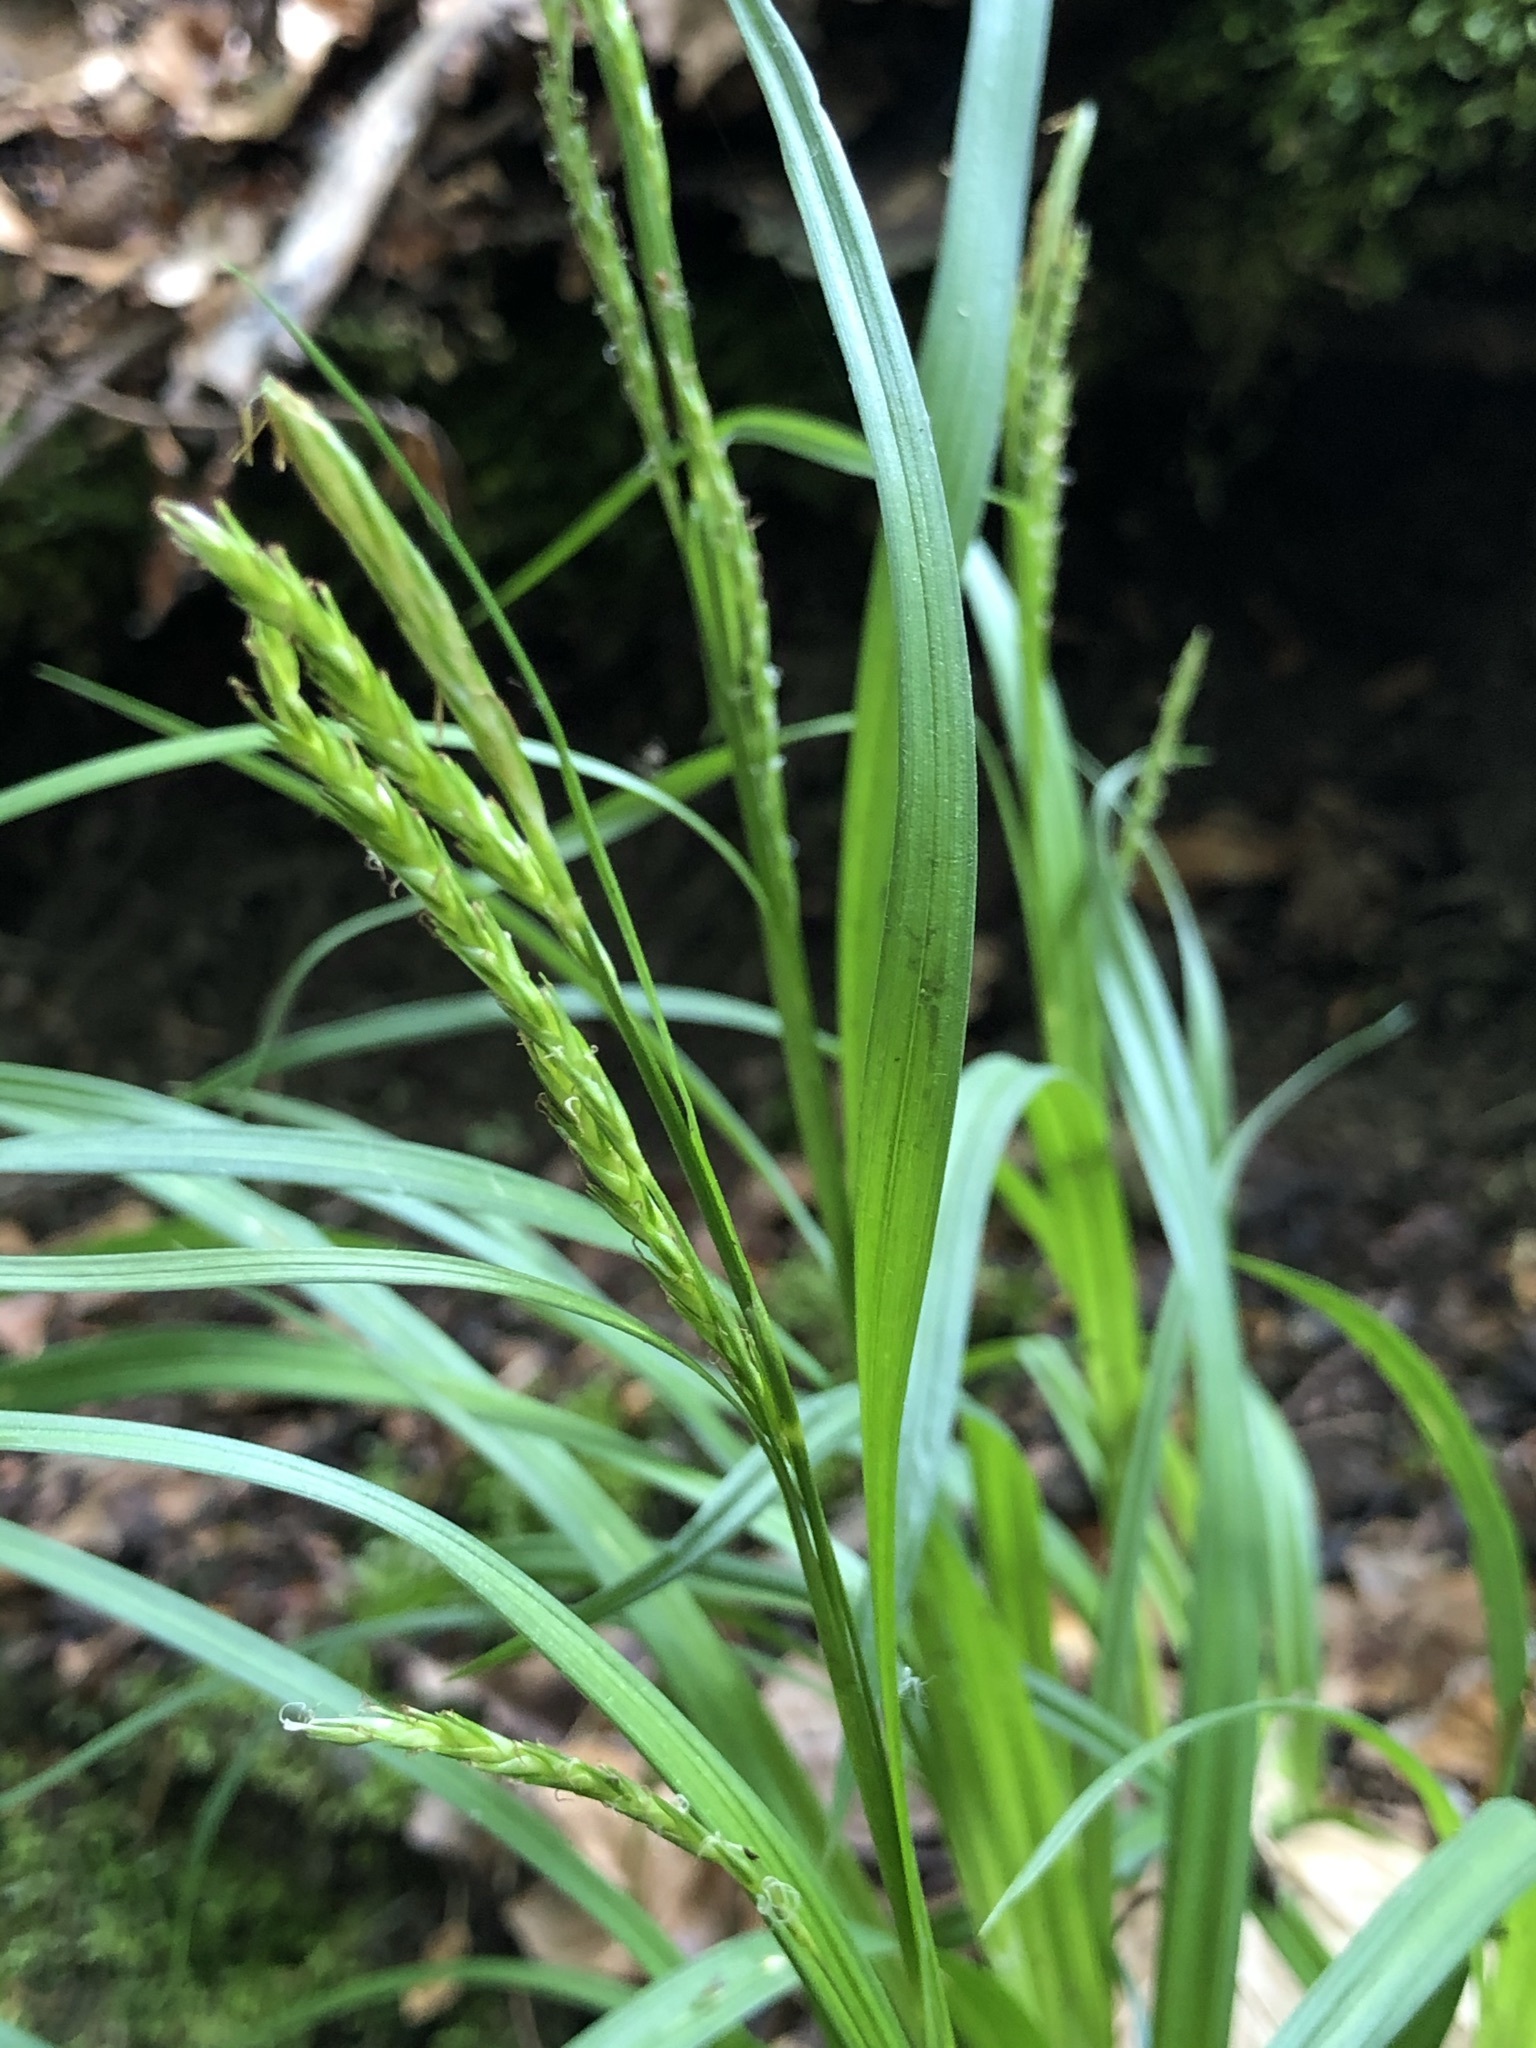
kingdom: Plantae
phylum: Tracheophyta
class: Liliopsida
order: Poales
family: Cyperaceae
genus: Carex
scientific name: Carex sylvatica
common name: Wood-sedge
